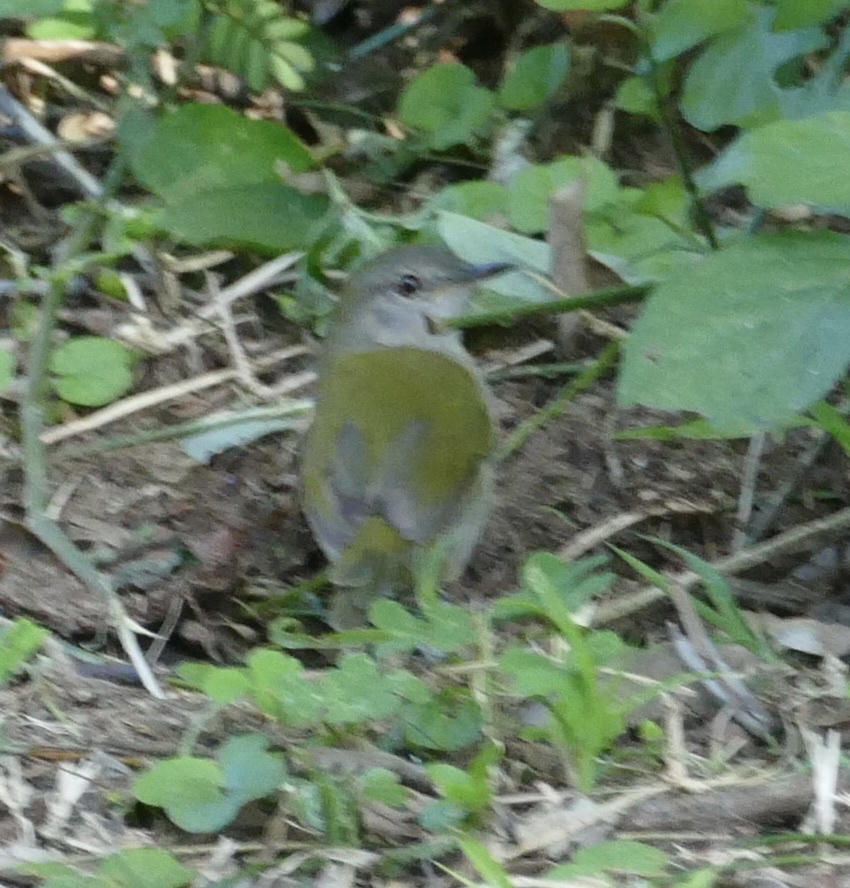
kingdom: Animalia
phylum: Chordata
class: Aves
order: Passeriformes
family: Cisticolidae
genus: Camaroptera
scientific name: Camaroptera brachyura
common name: Green-backed camaroptera
